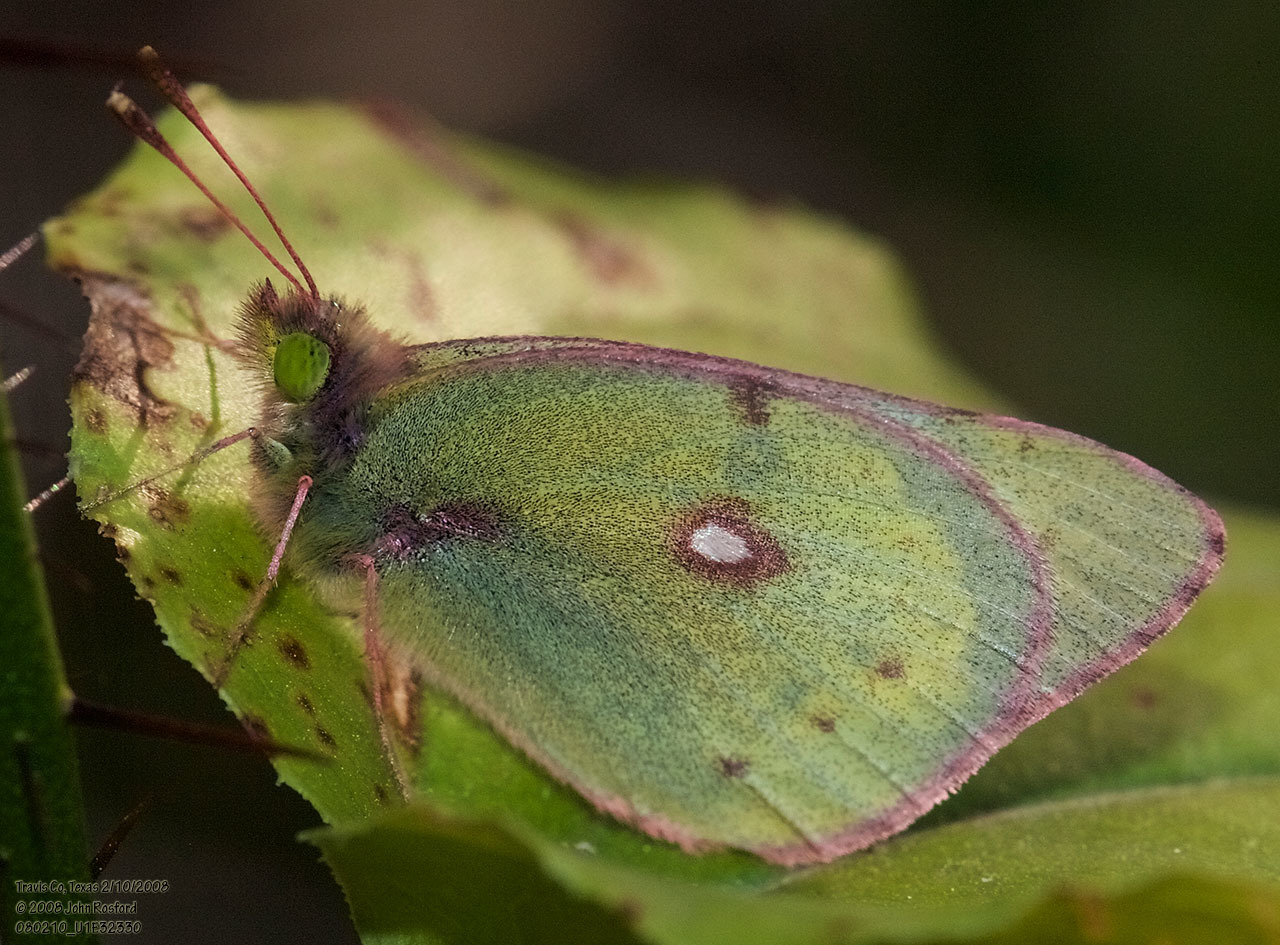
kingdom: Animalia
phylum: Arthropoda
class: Insecta
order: Lepidoptera
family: Pieridae
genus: Colias
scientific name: Colias eurytheme
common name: Alfalfa butterfly
